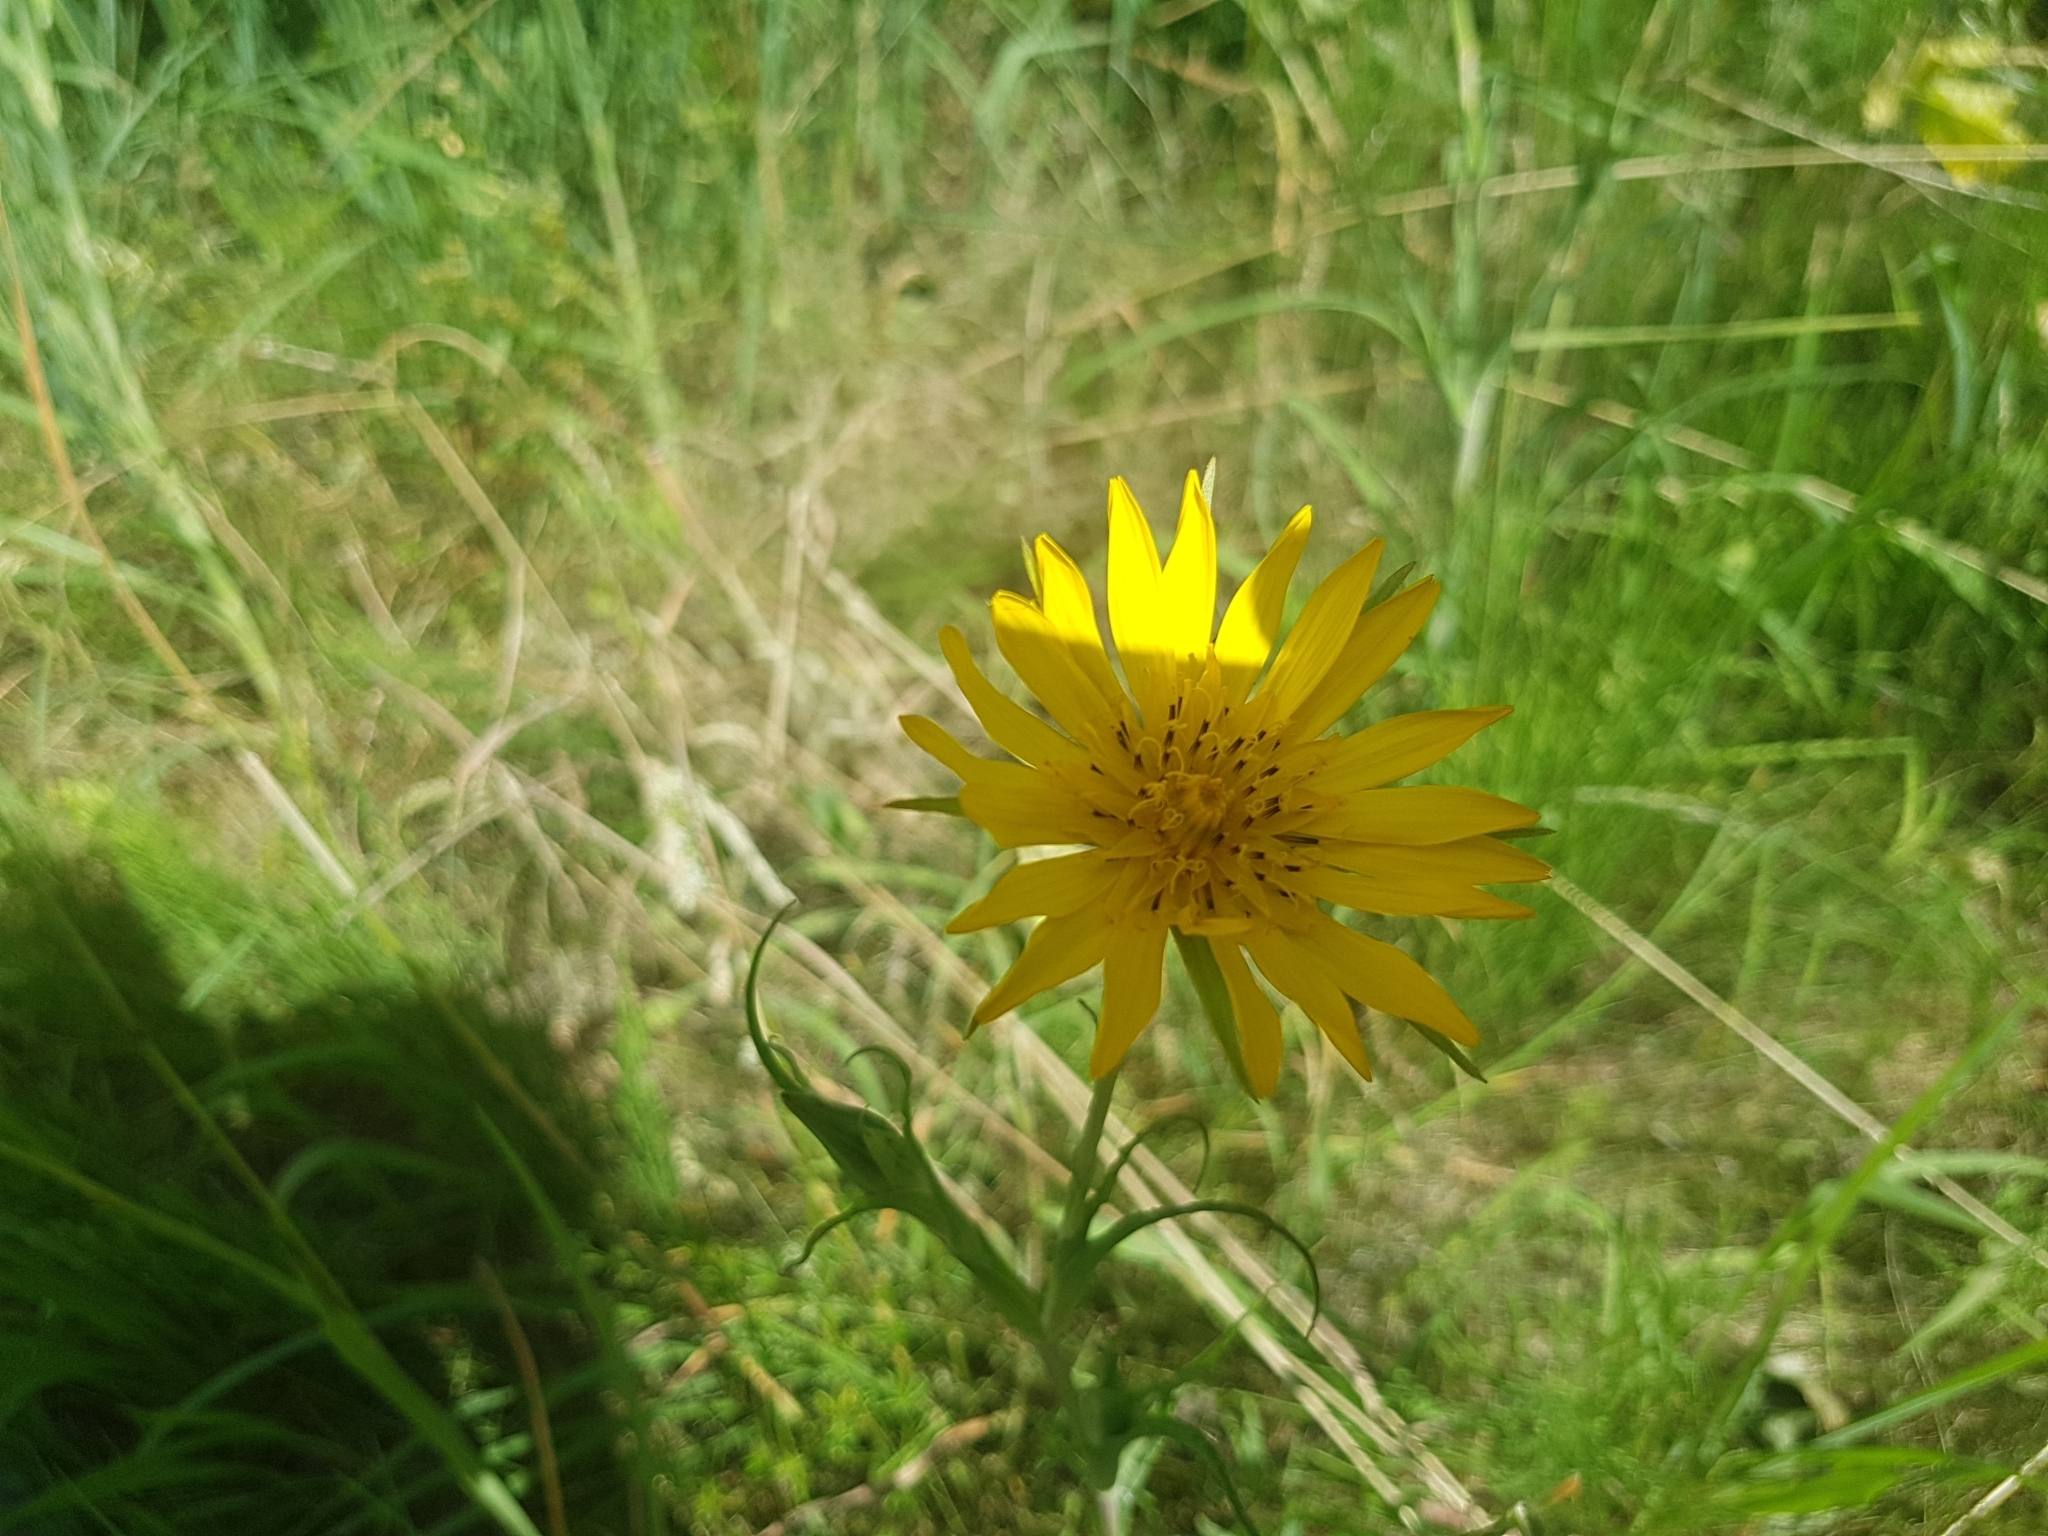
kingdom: Plantae
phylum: Tracheophyta
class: Magnoliopsida
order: Asterales
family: Asteraceae
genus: Tragopogon
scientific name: Tragopogon pratensis
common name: Goat's-beard
